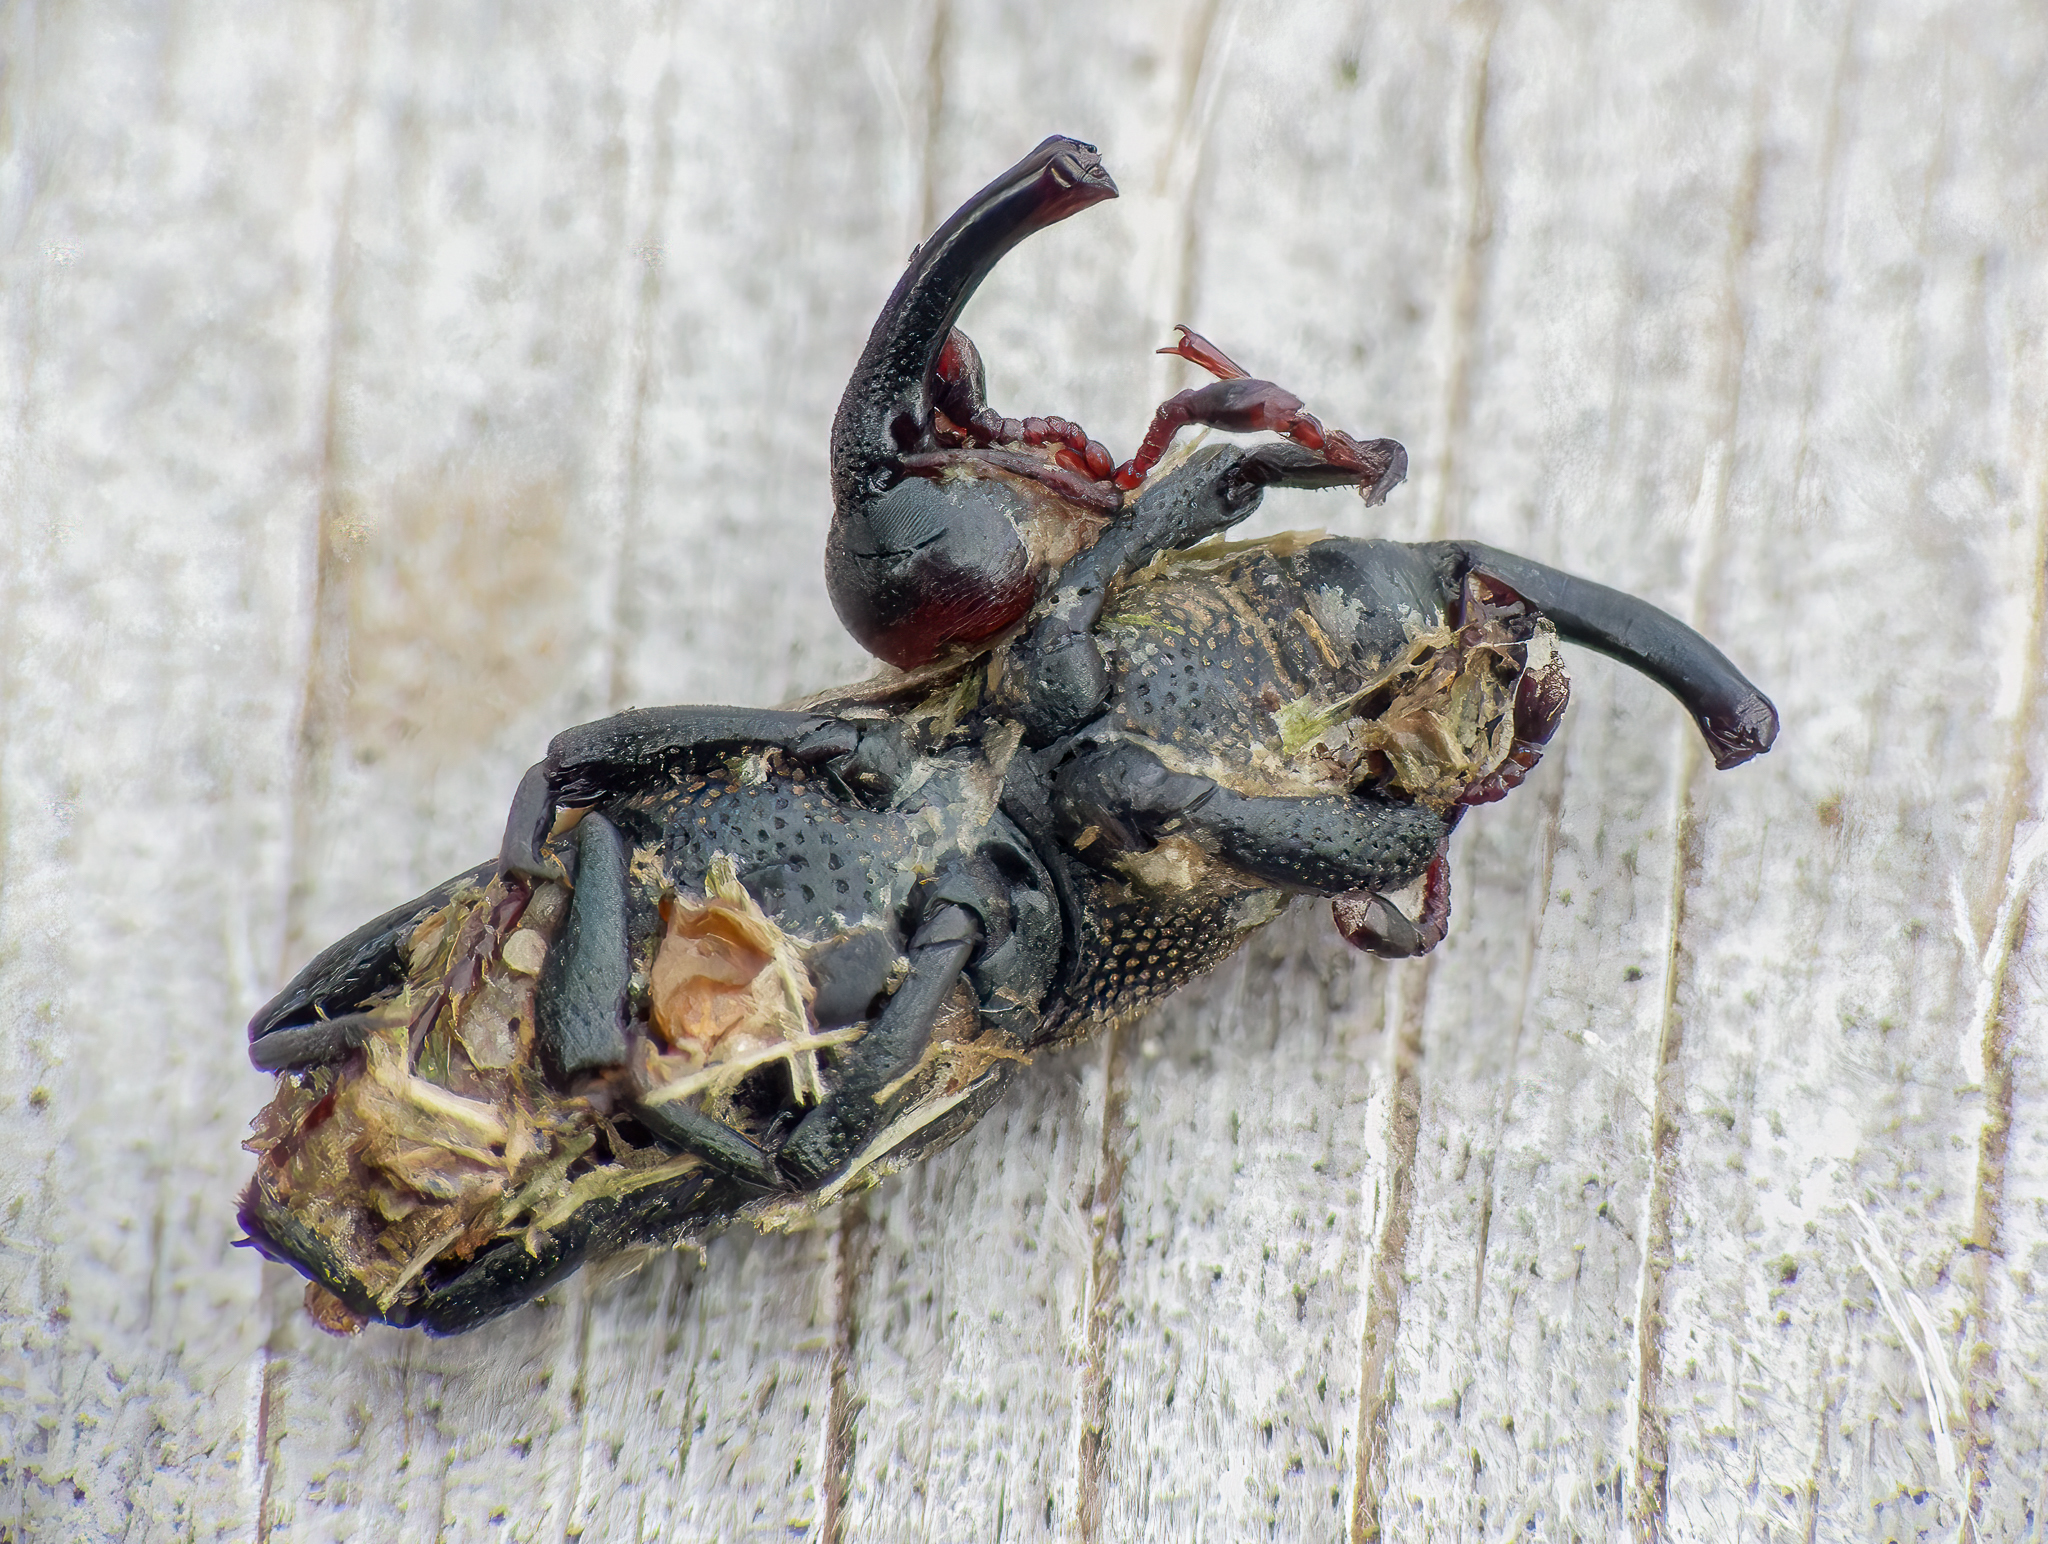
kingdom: Animalia
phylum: Arthropoda
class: Insecta
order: Coleoptera
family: Dryophthoridae
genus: Sphenophorus
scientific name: Sphenophorus interstitialis
